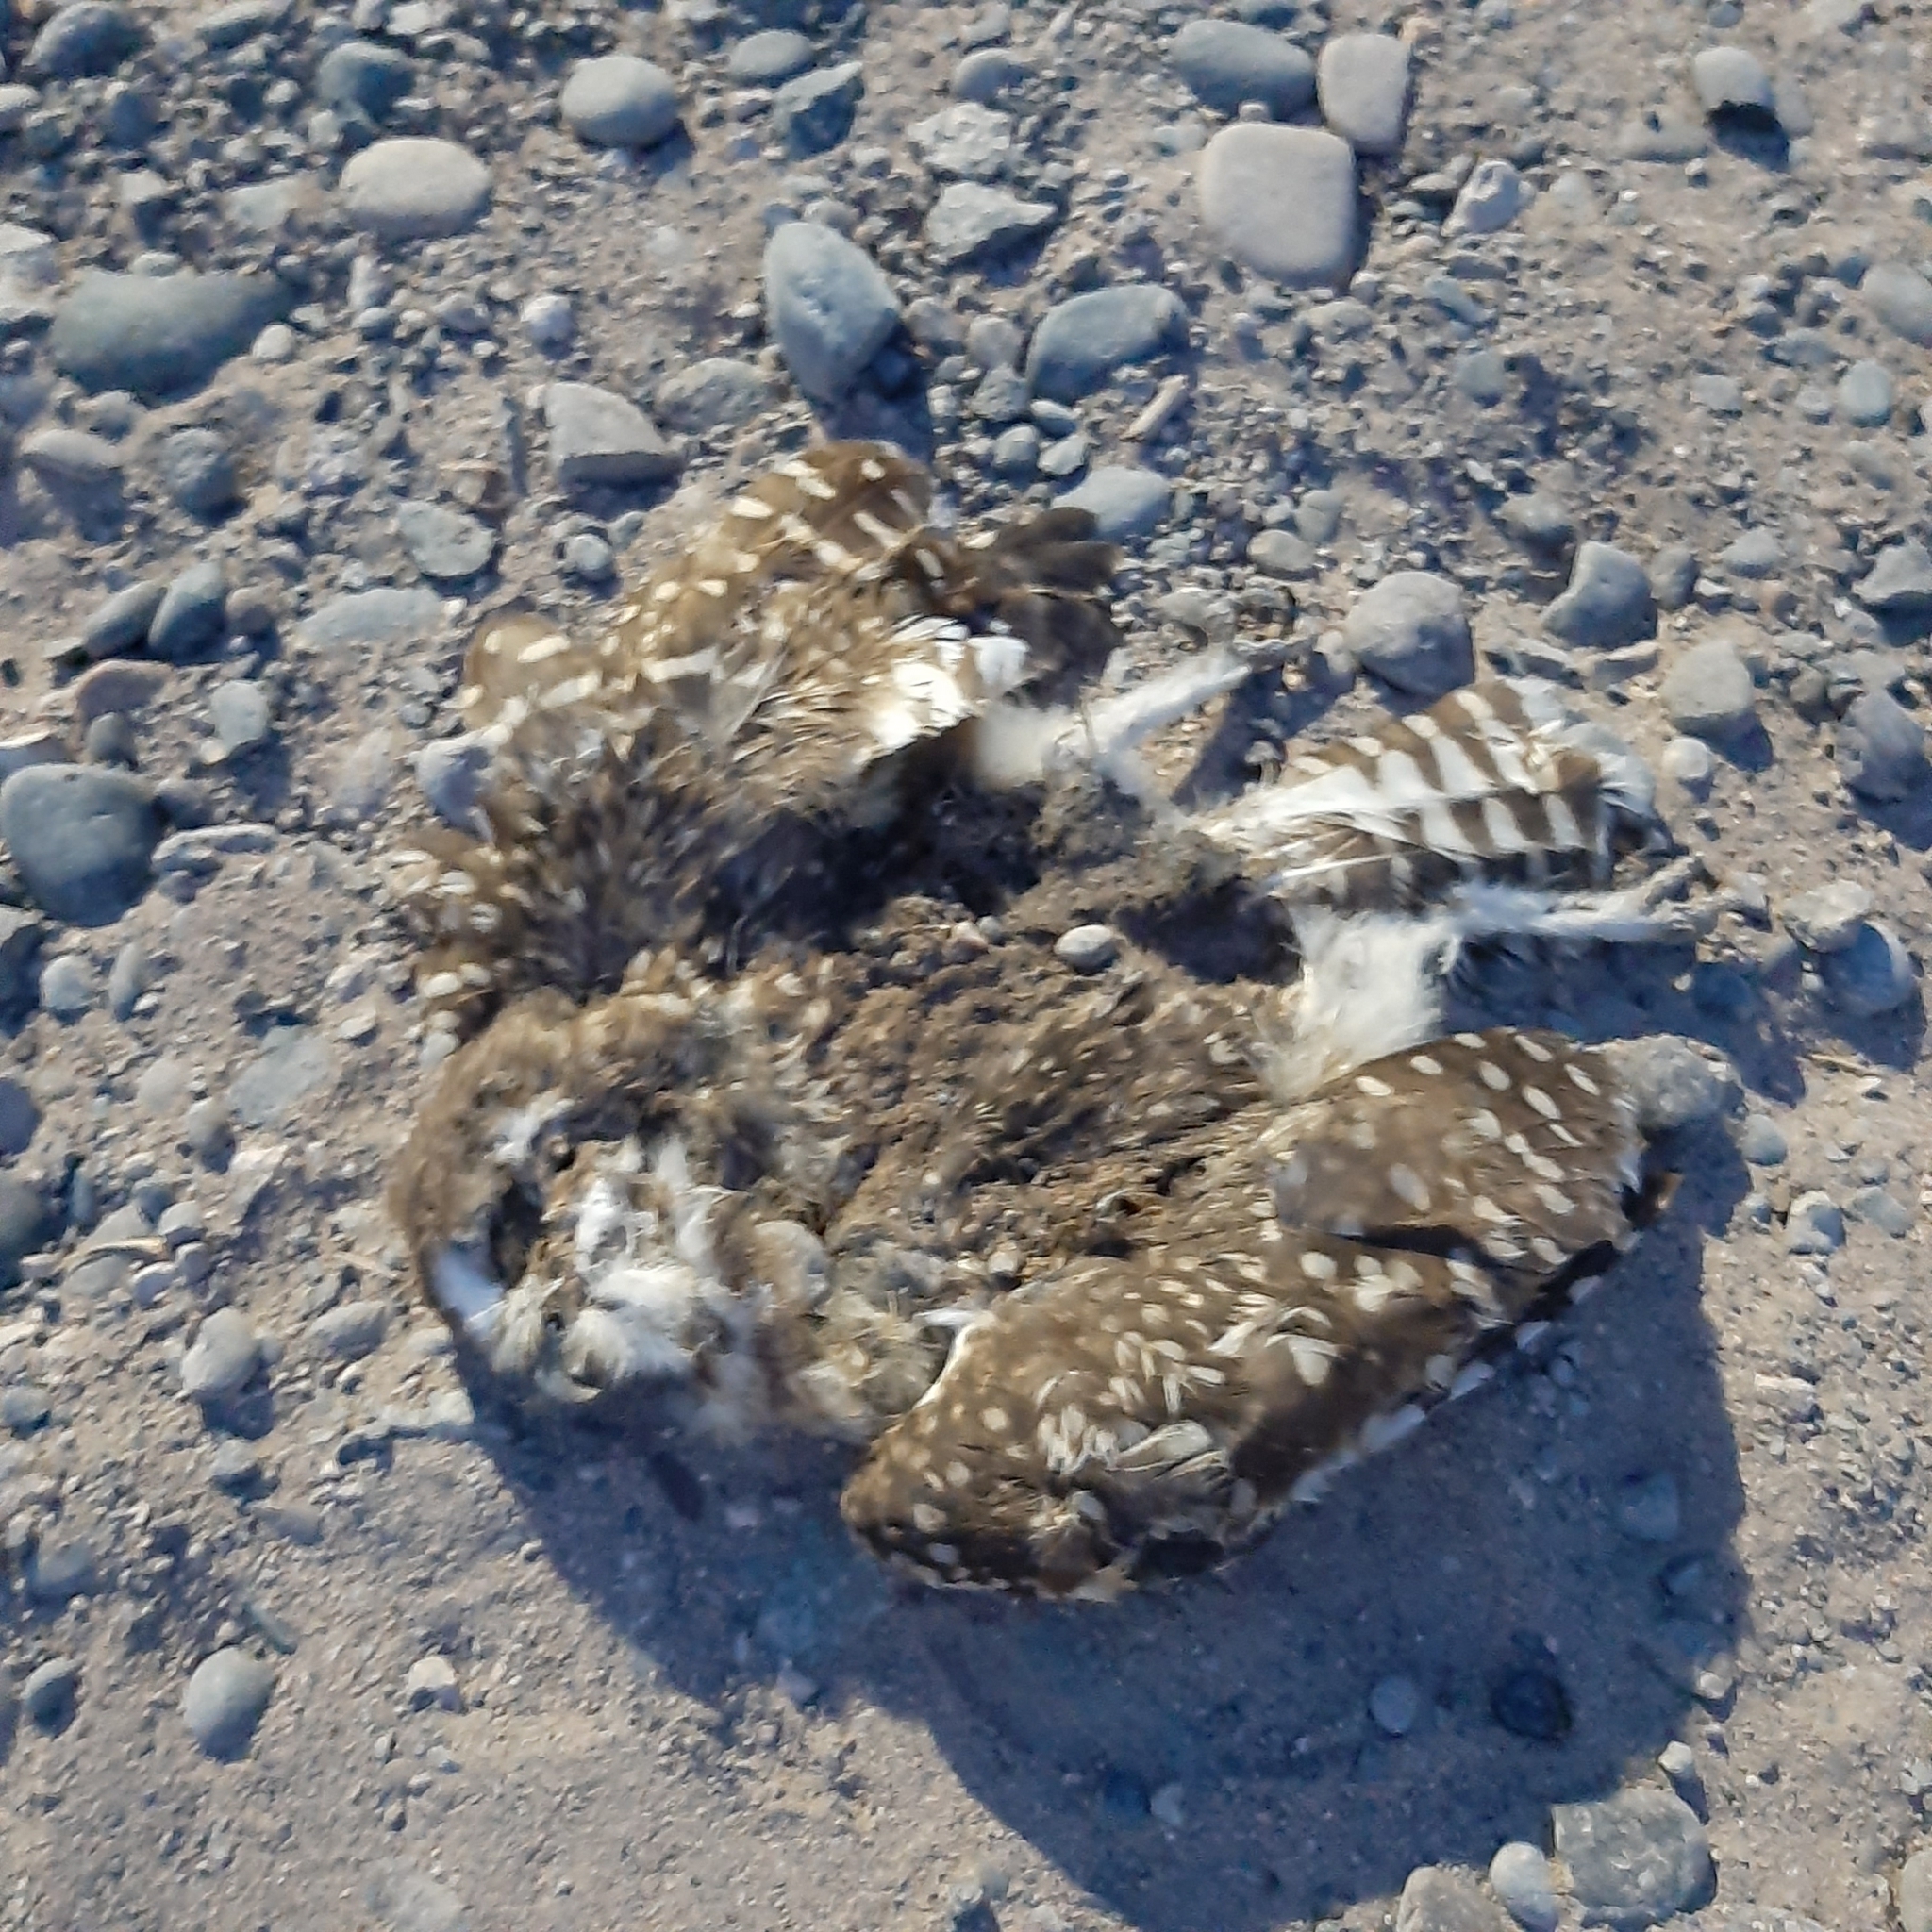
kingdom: Animalia
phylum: Chordata
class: Aves
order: Strigiformes
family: Strigidae
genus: Athene
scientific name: Athene cunicularia
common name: Burrowing owl
